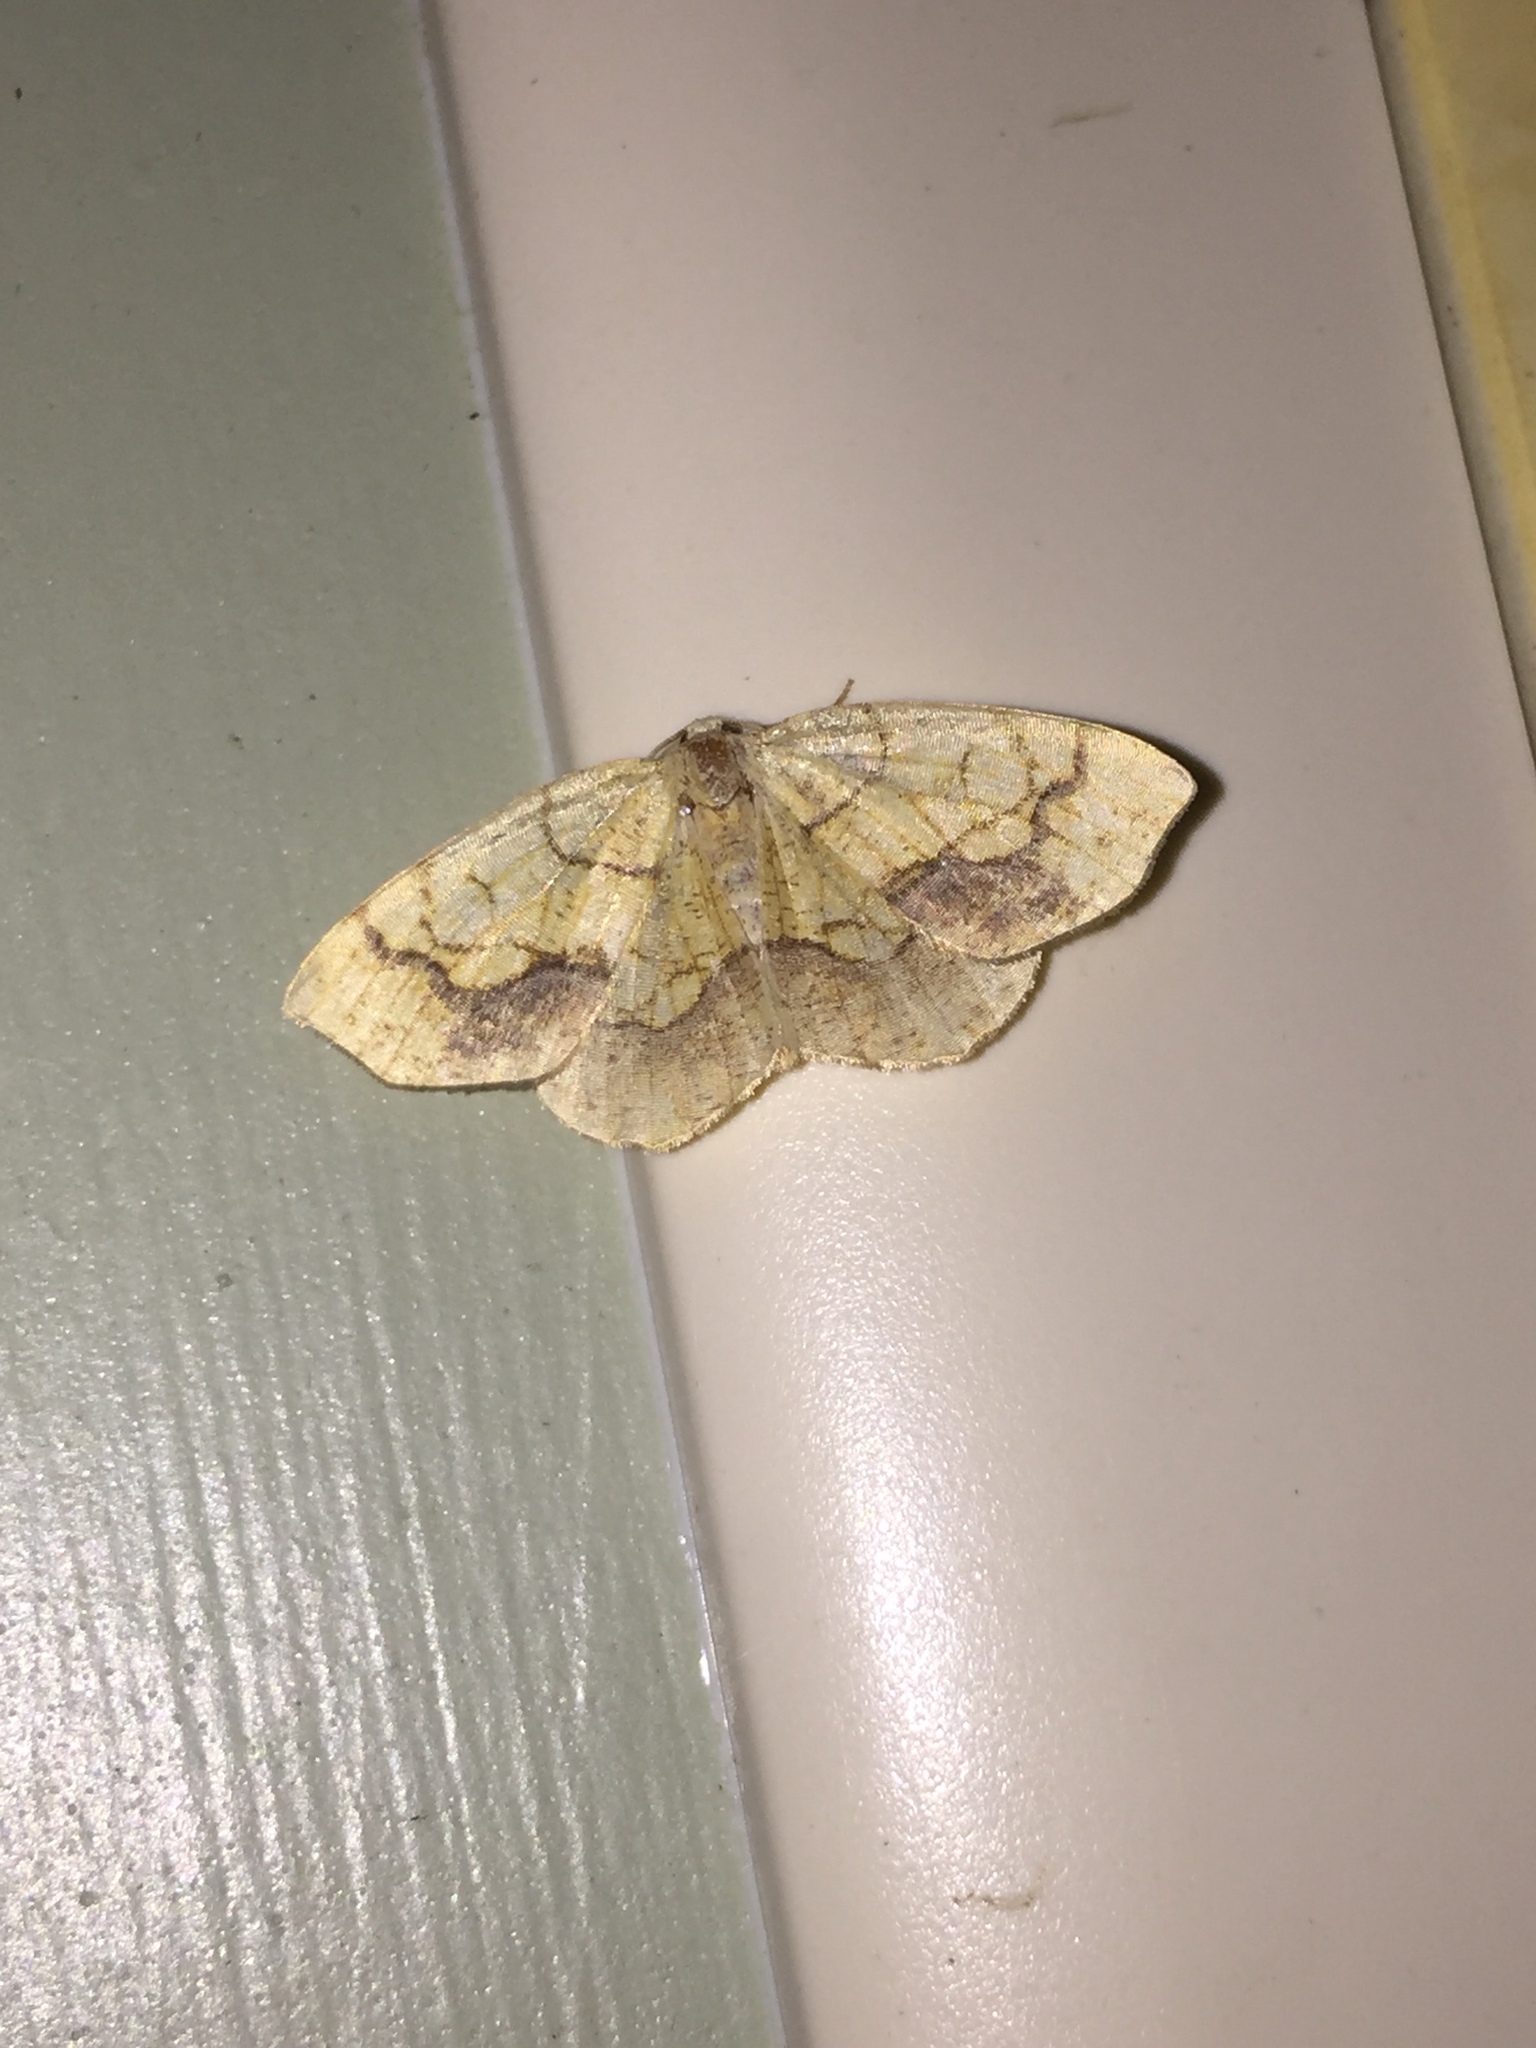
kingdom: Animalia
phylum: Arthropoda
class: Insecta
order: Lepidoptera
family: Geometridae
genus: Nematocampa
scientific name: Nematocampa resistaria
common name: Horned spanworm moth
